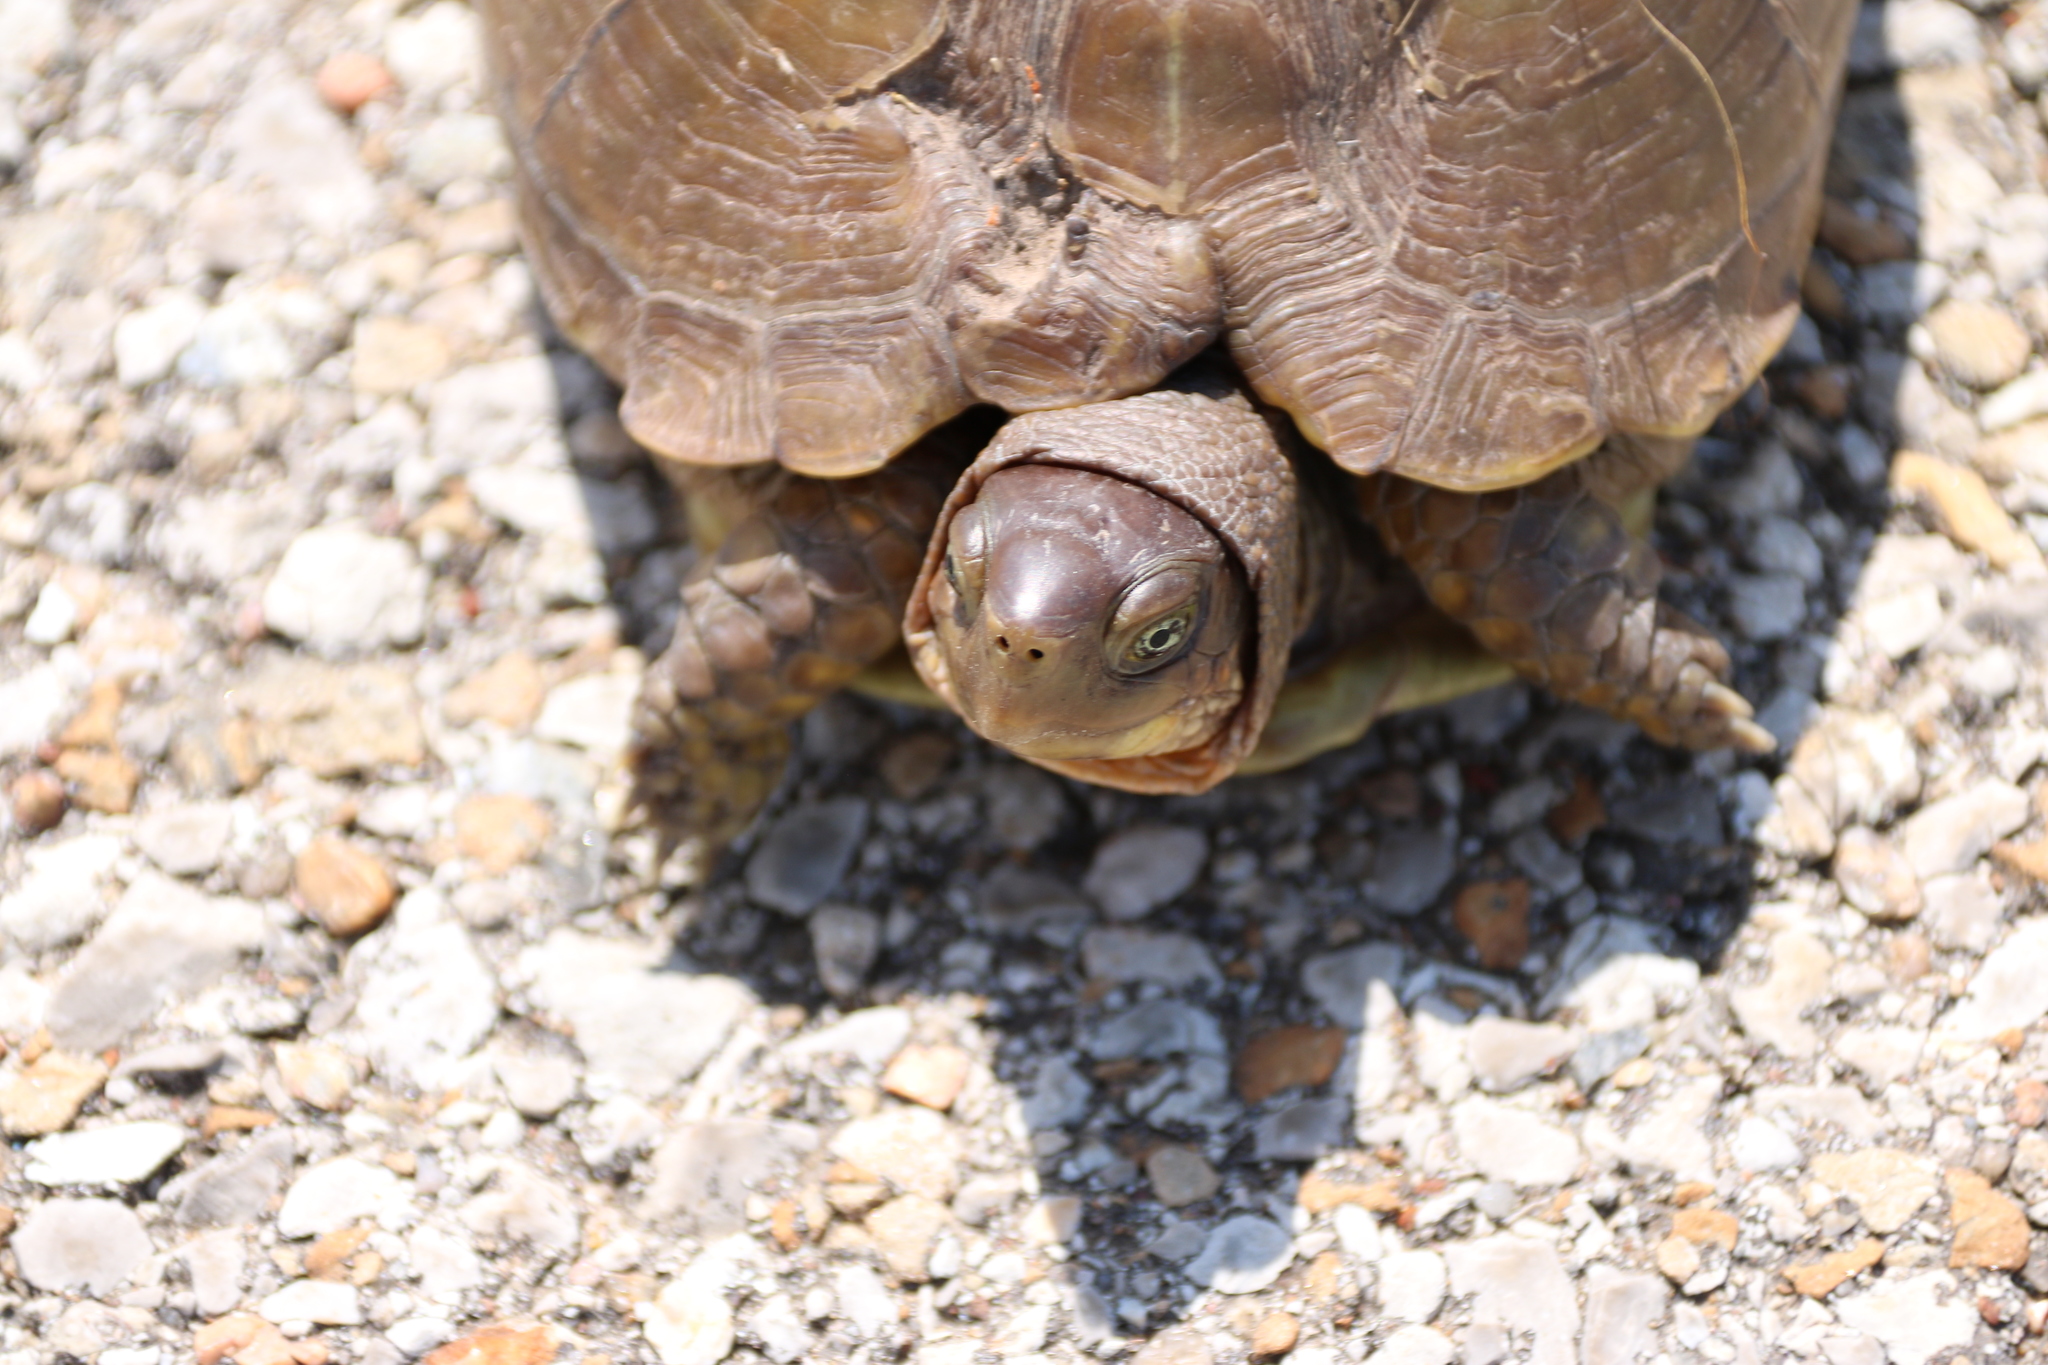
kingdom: Animalia
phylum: Chordata
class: Testudines
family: Emydidae
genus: Terrapene
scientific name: Terrapene carolina
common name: Common box turtle
